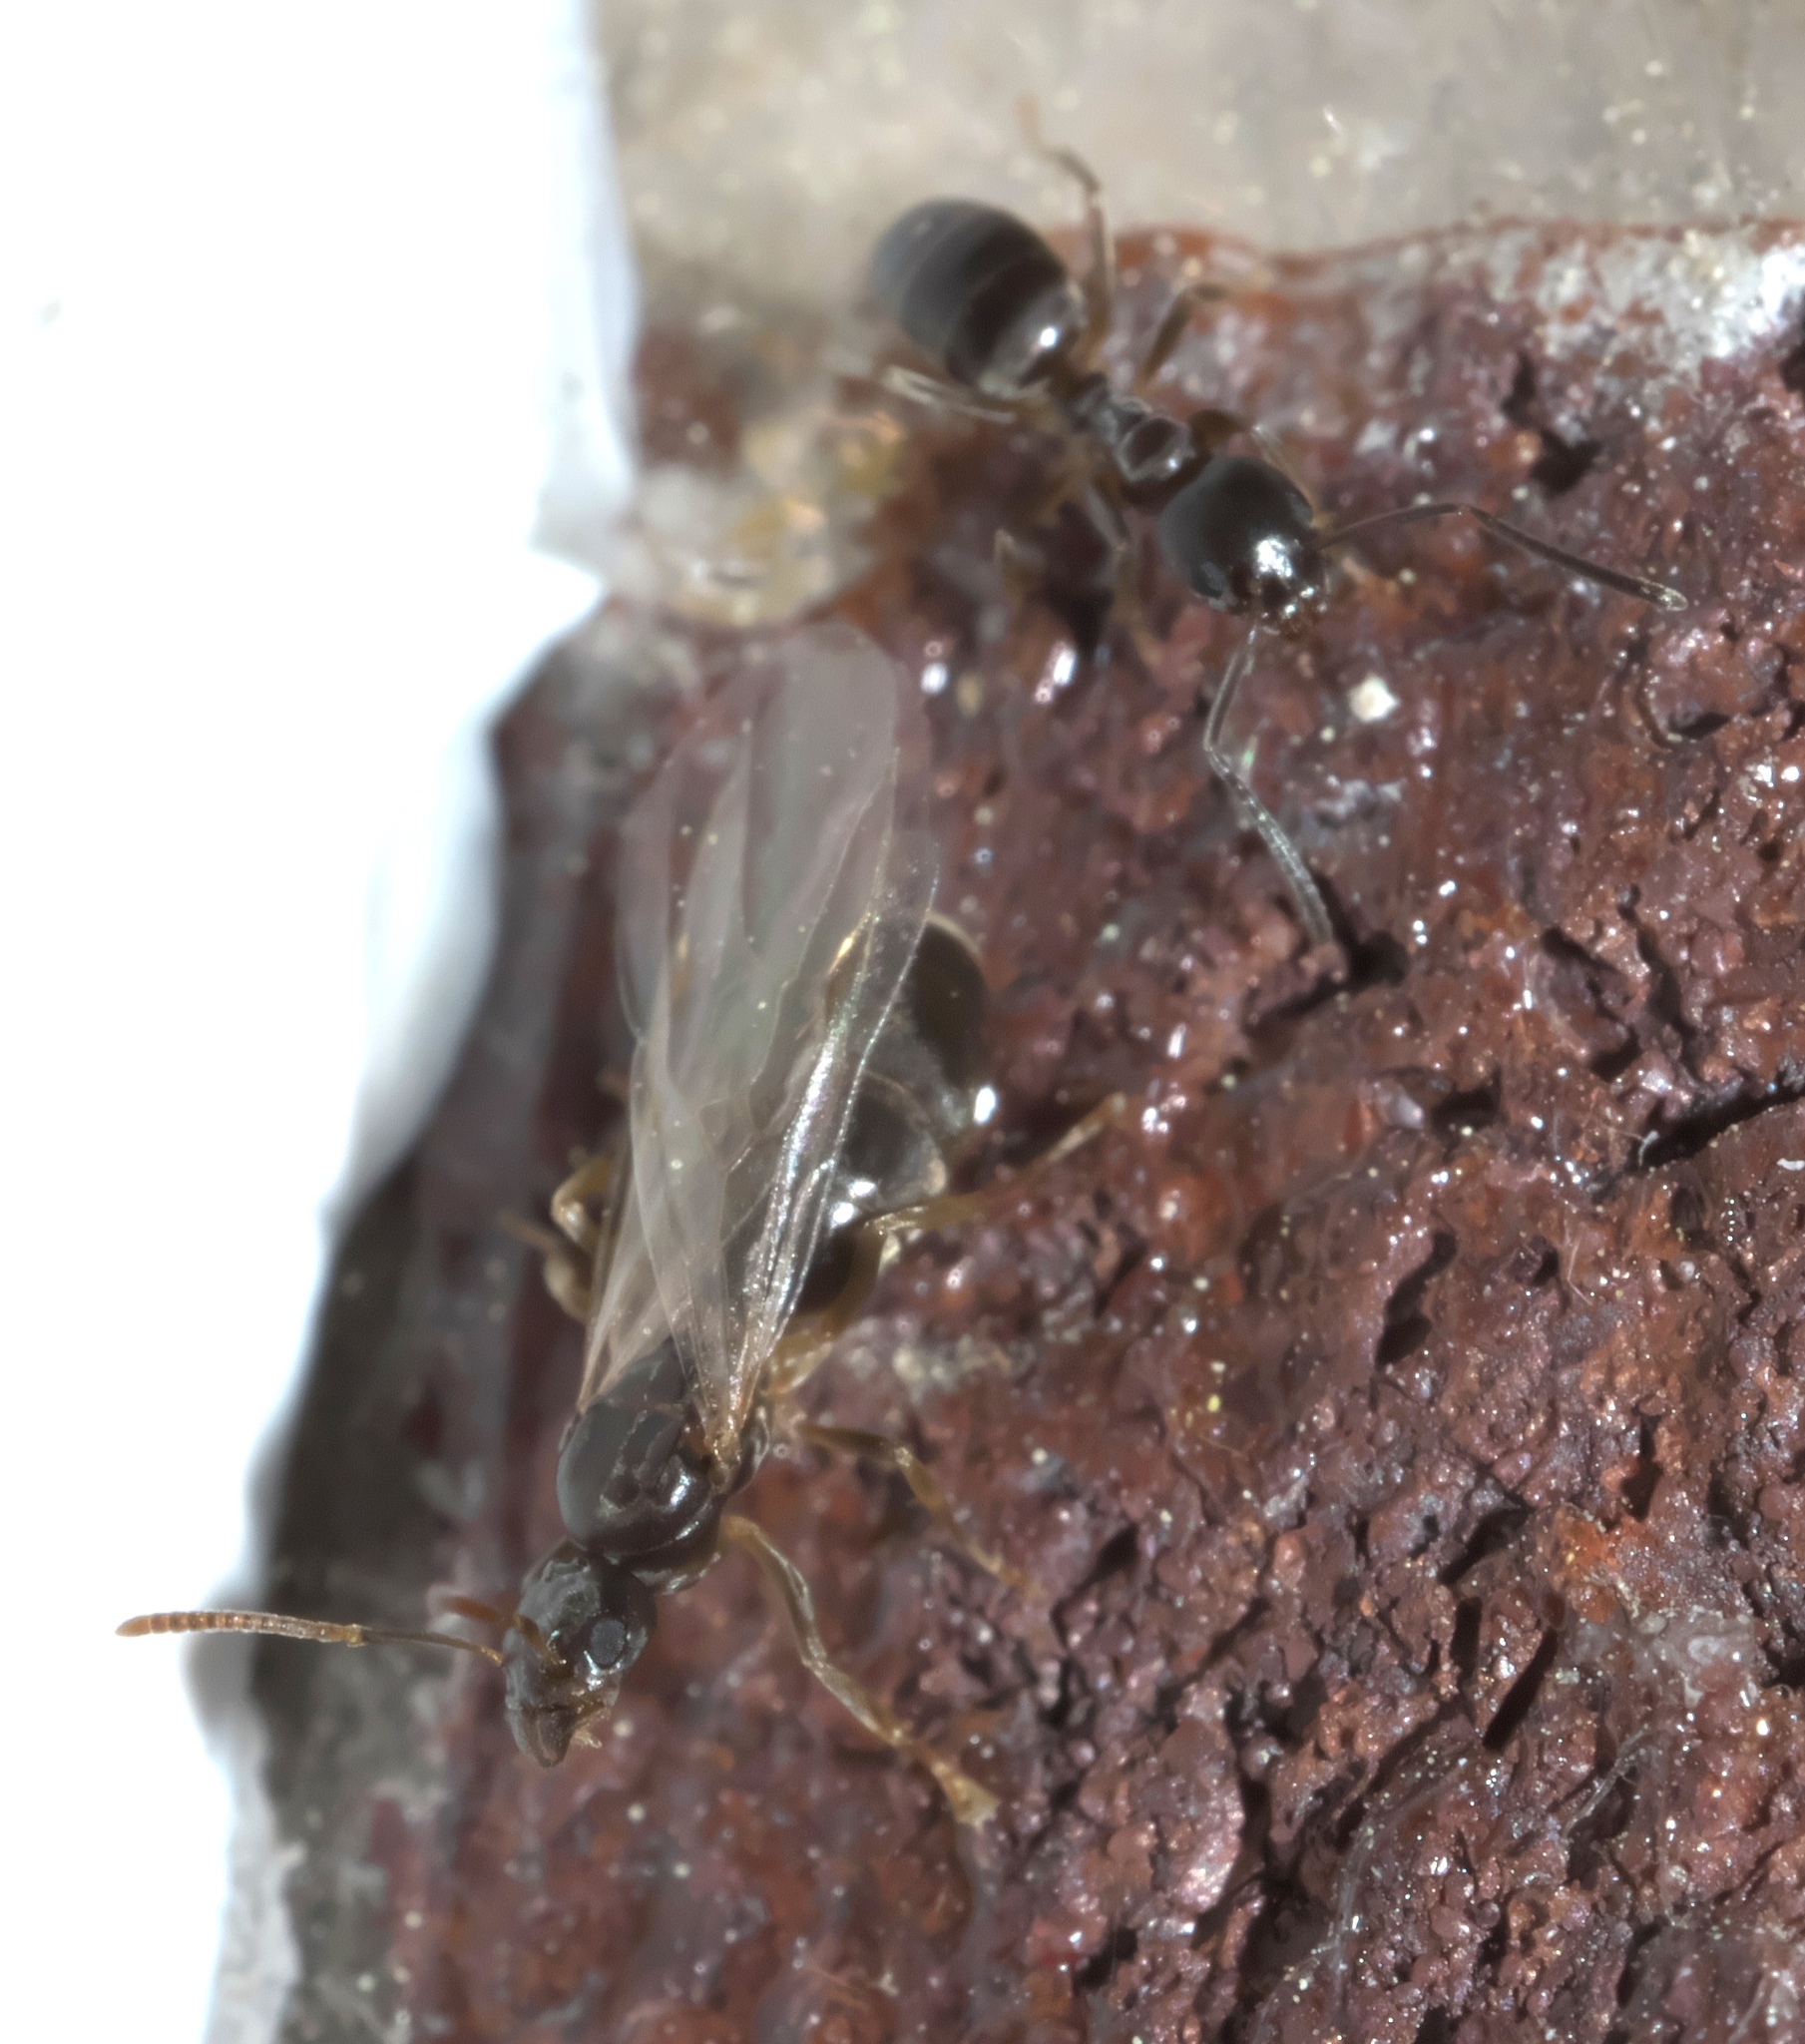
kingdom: Animalia
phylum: Arthropoda
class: Insecta
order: Hymenoptera
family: Formicidae
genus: Tapinoma
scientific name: Tapinoma sessile
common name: Odorous house ant
